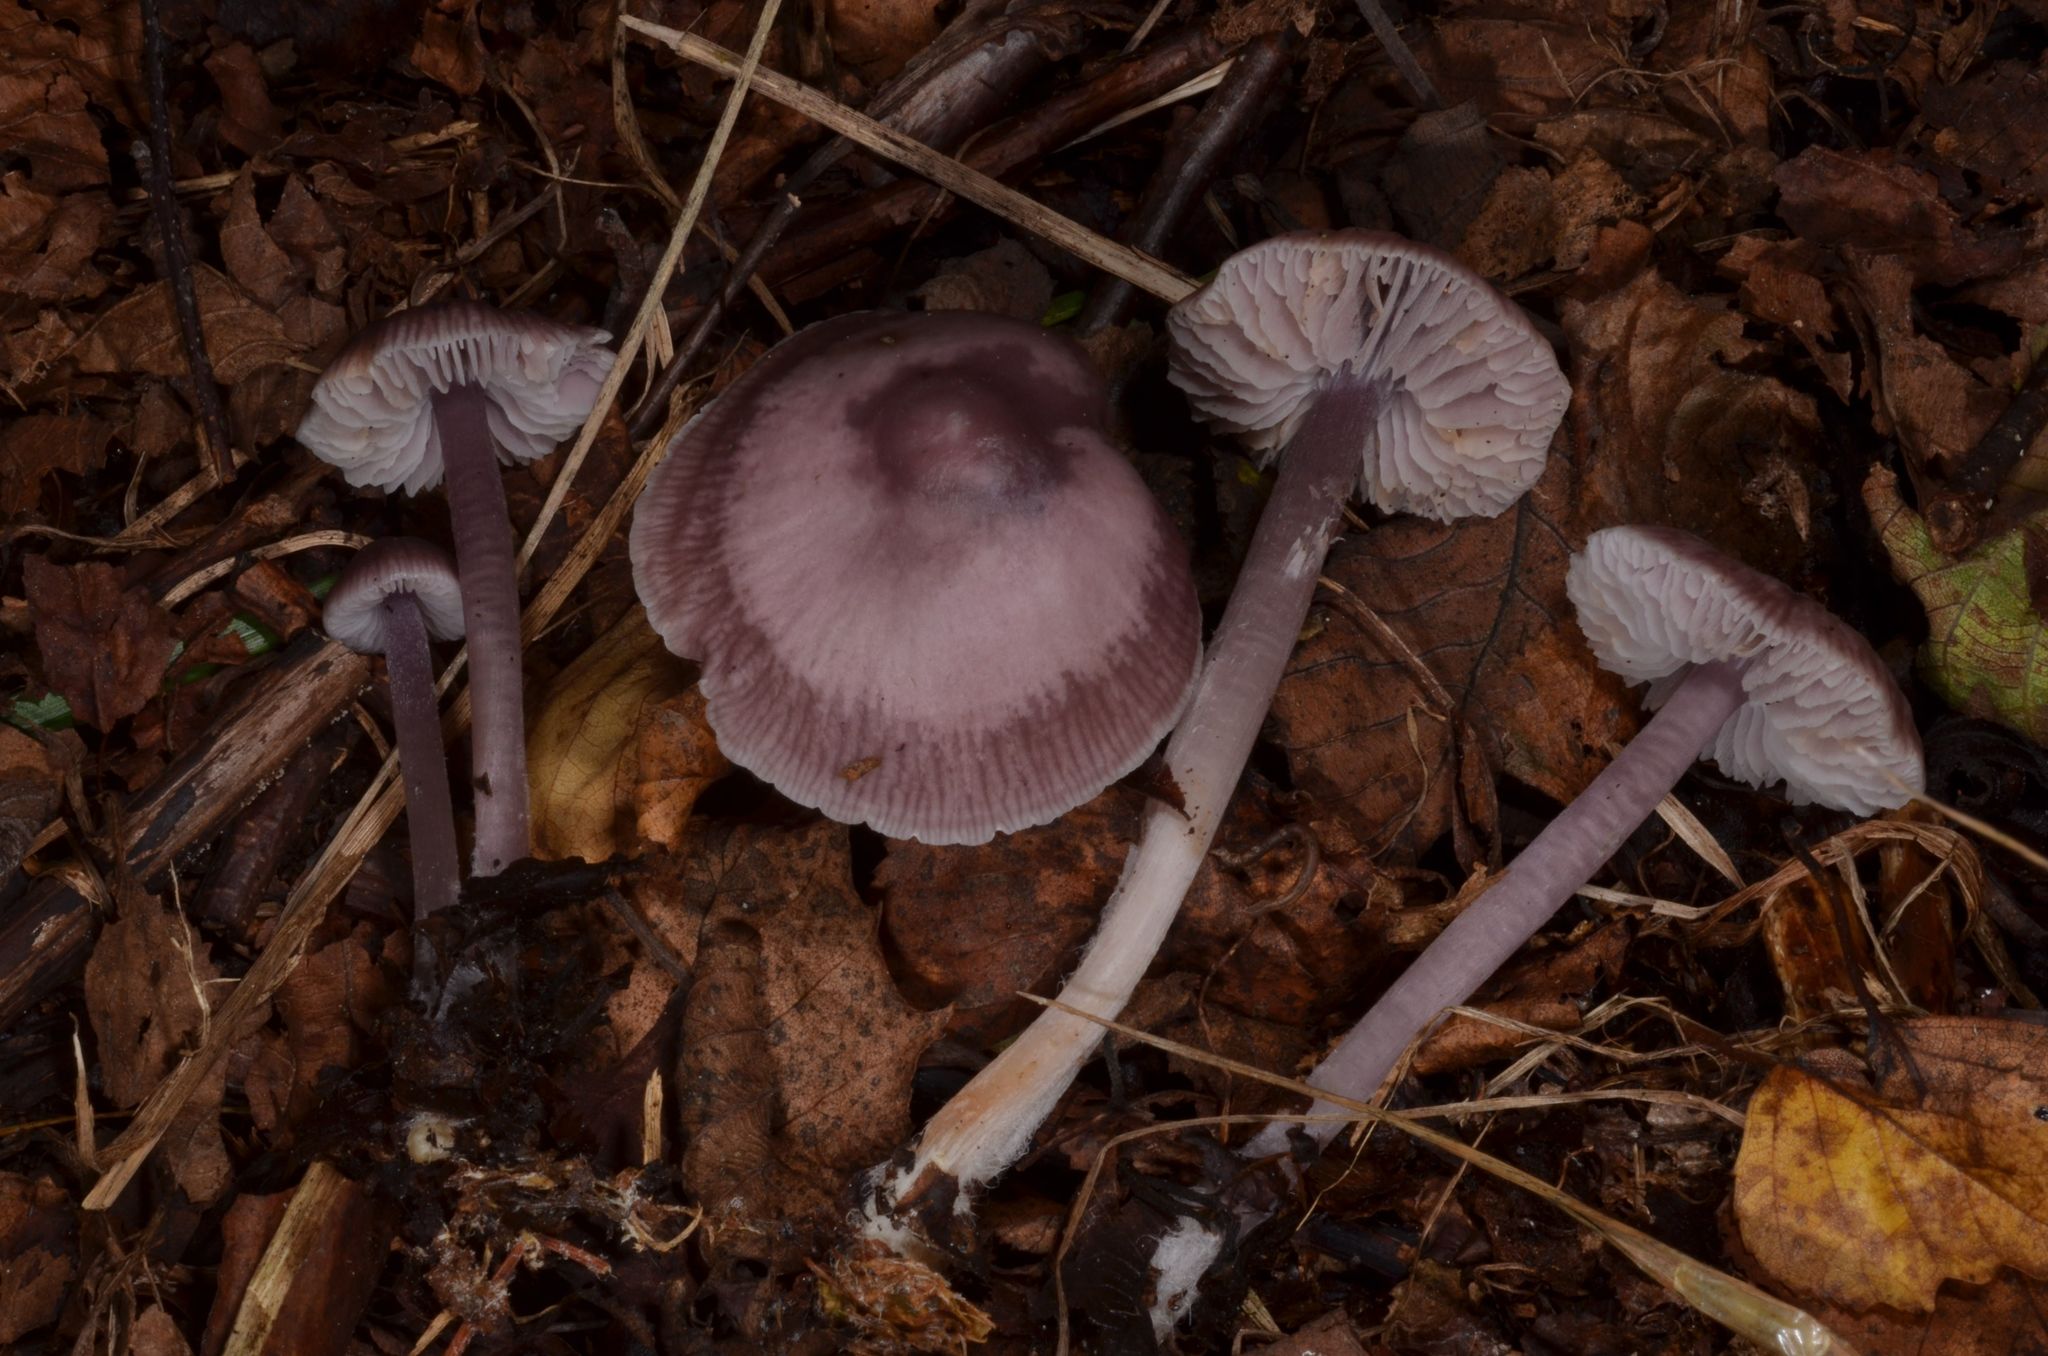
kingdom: Fungi
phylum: Basidiomycota
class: Agaricomycetes
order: Agaricales
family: Mycenaceae
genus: Mycena
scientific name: Mycena pura
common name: Lilac bonnet
